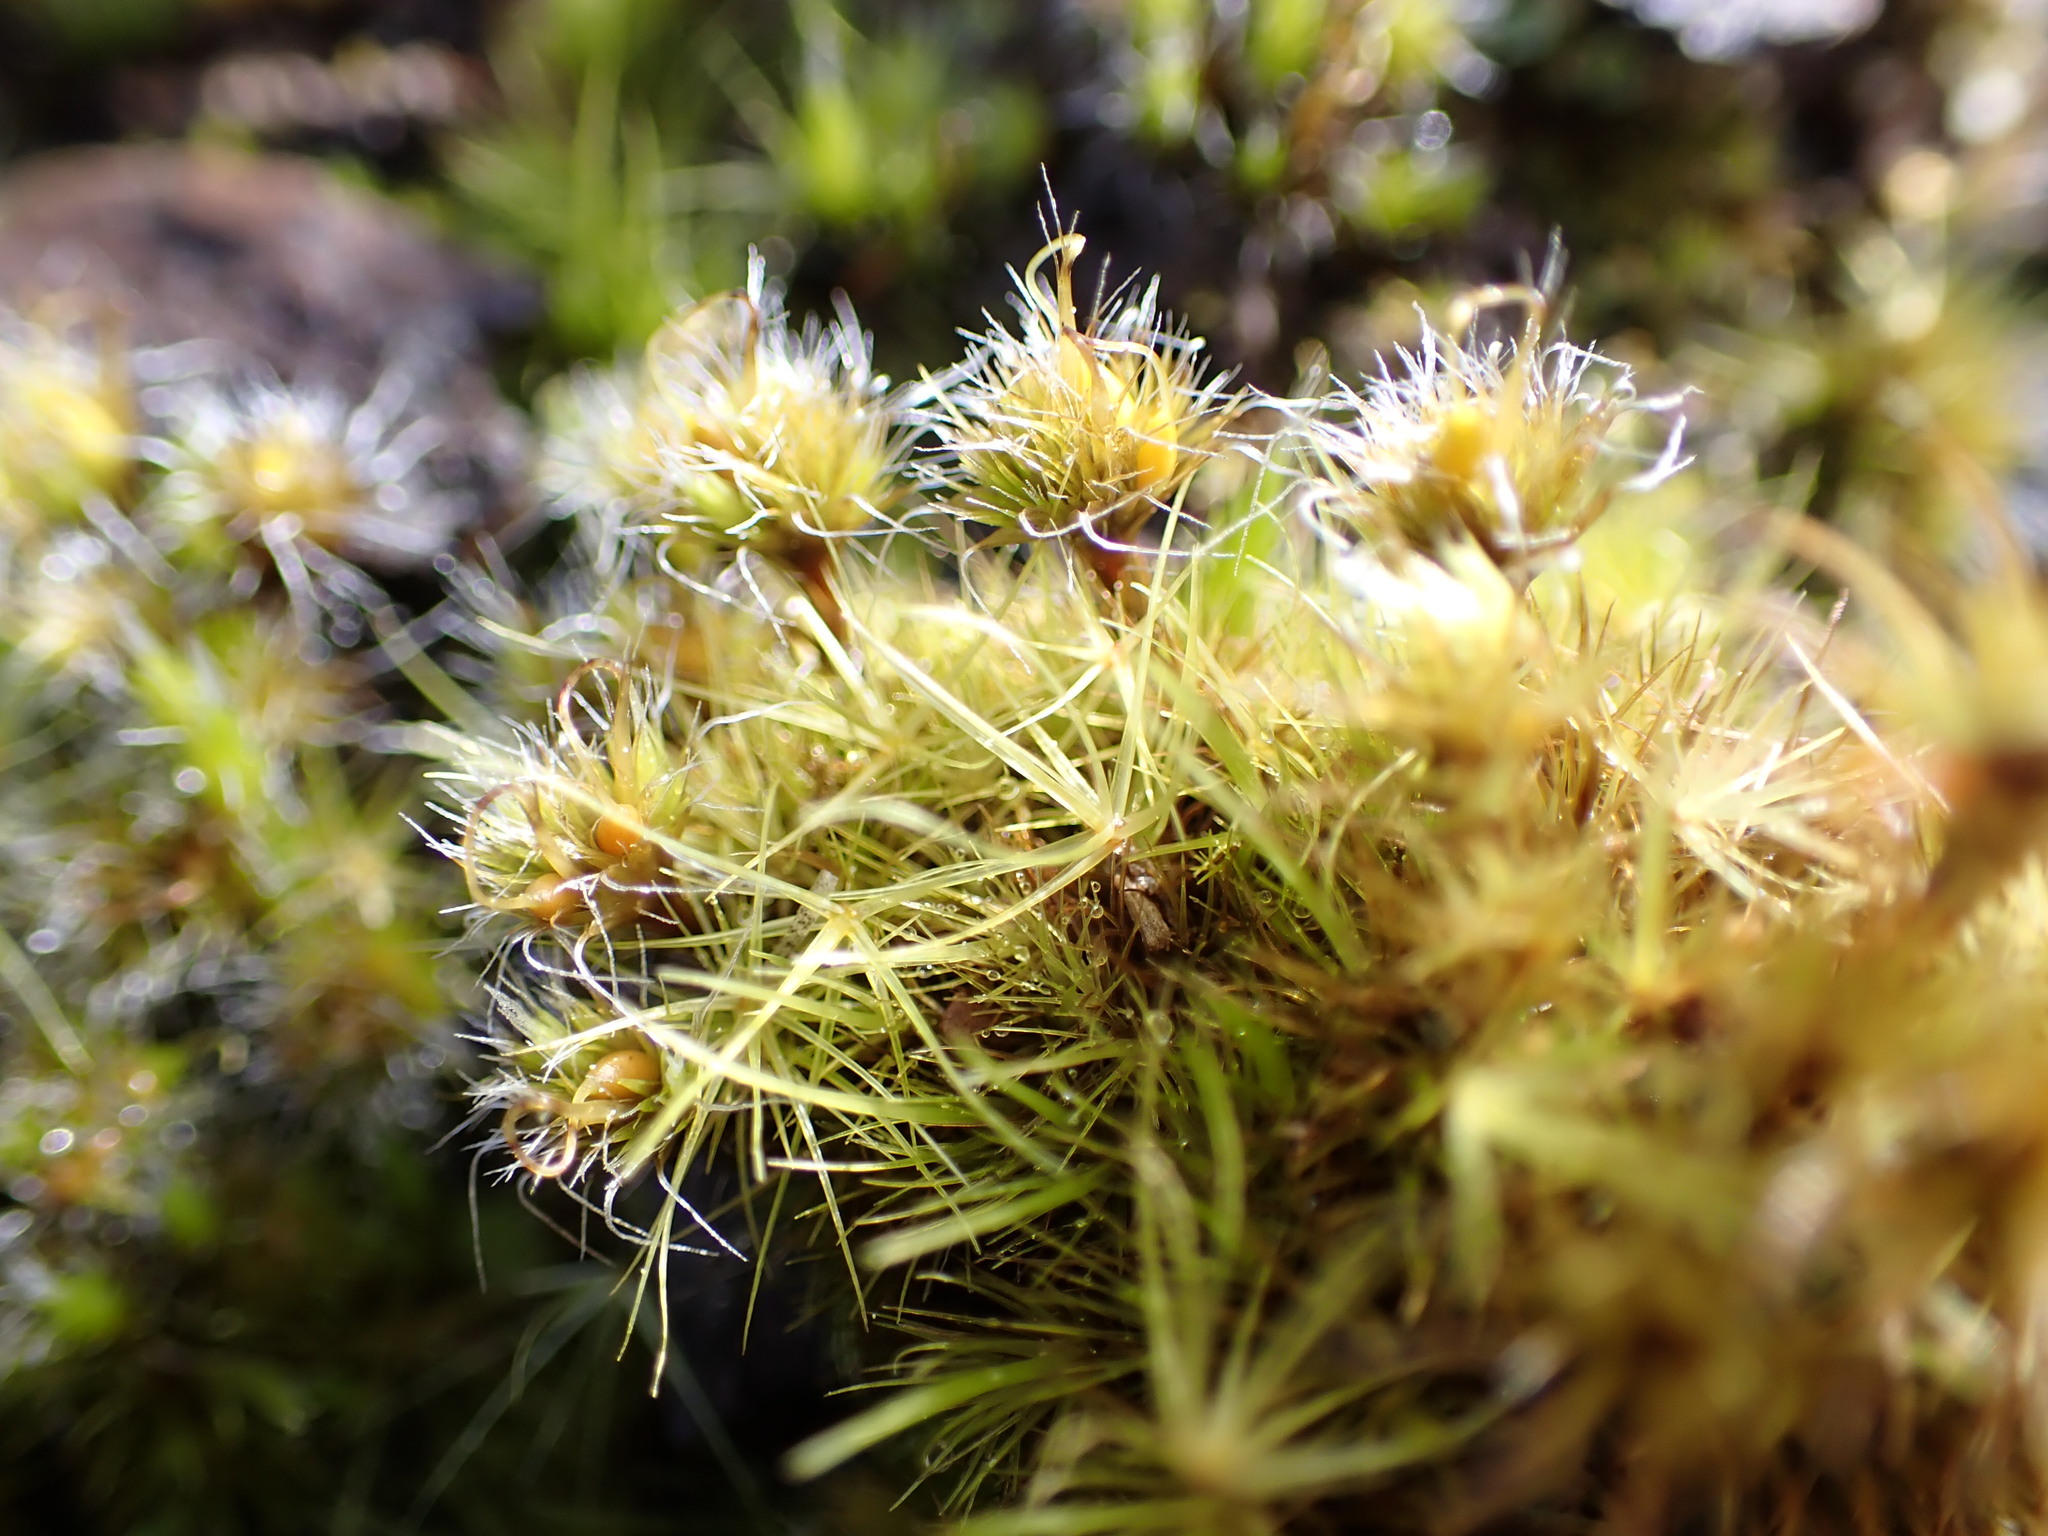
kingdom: Plantae
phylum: Bryophyta
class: Bryopsida
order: Dicranales
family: Leucobryaceae
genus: Campylopus
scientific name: Campylopus introflexus
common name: Heath star moss
